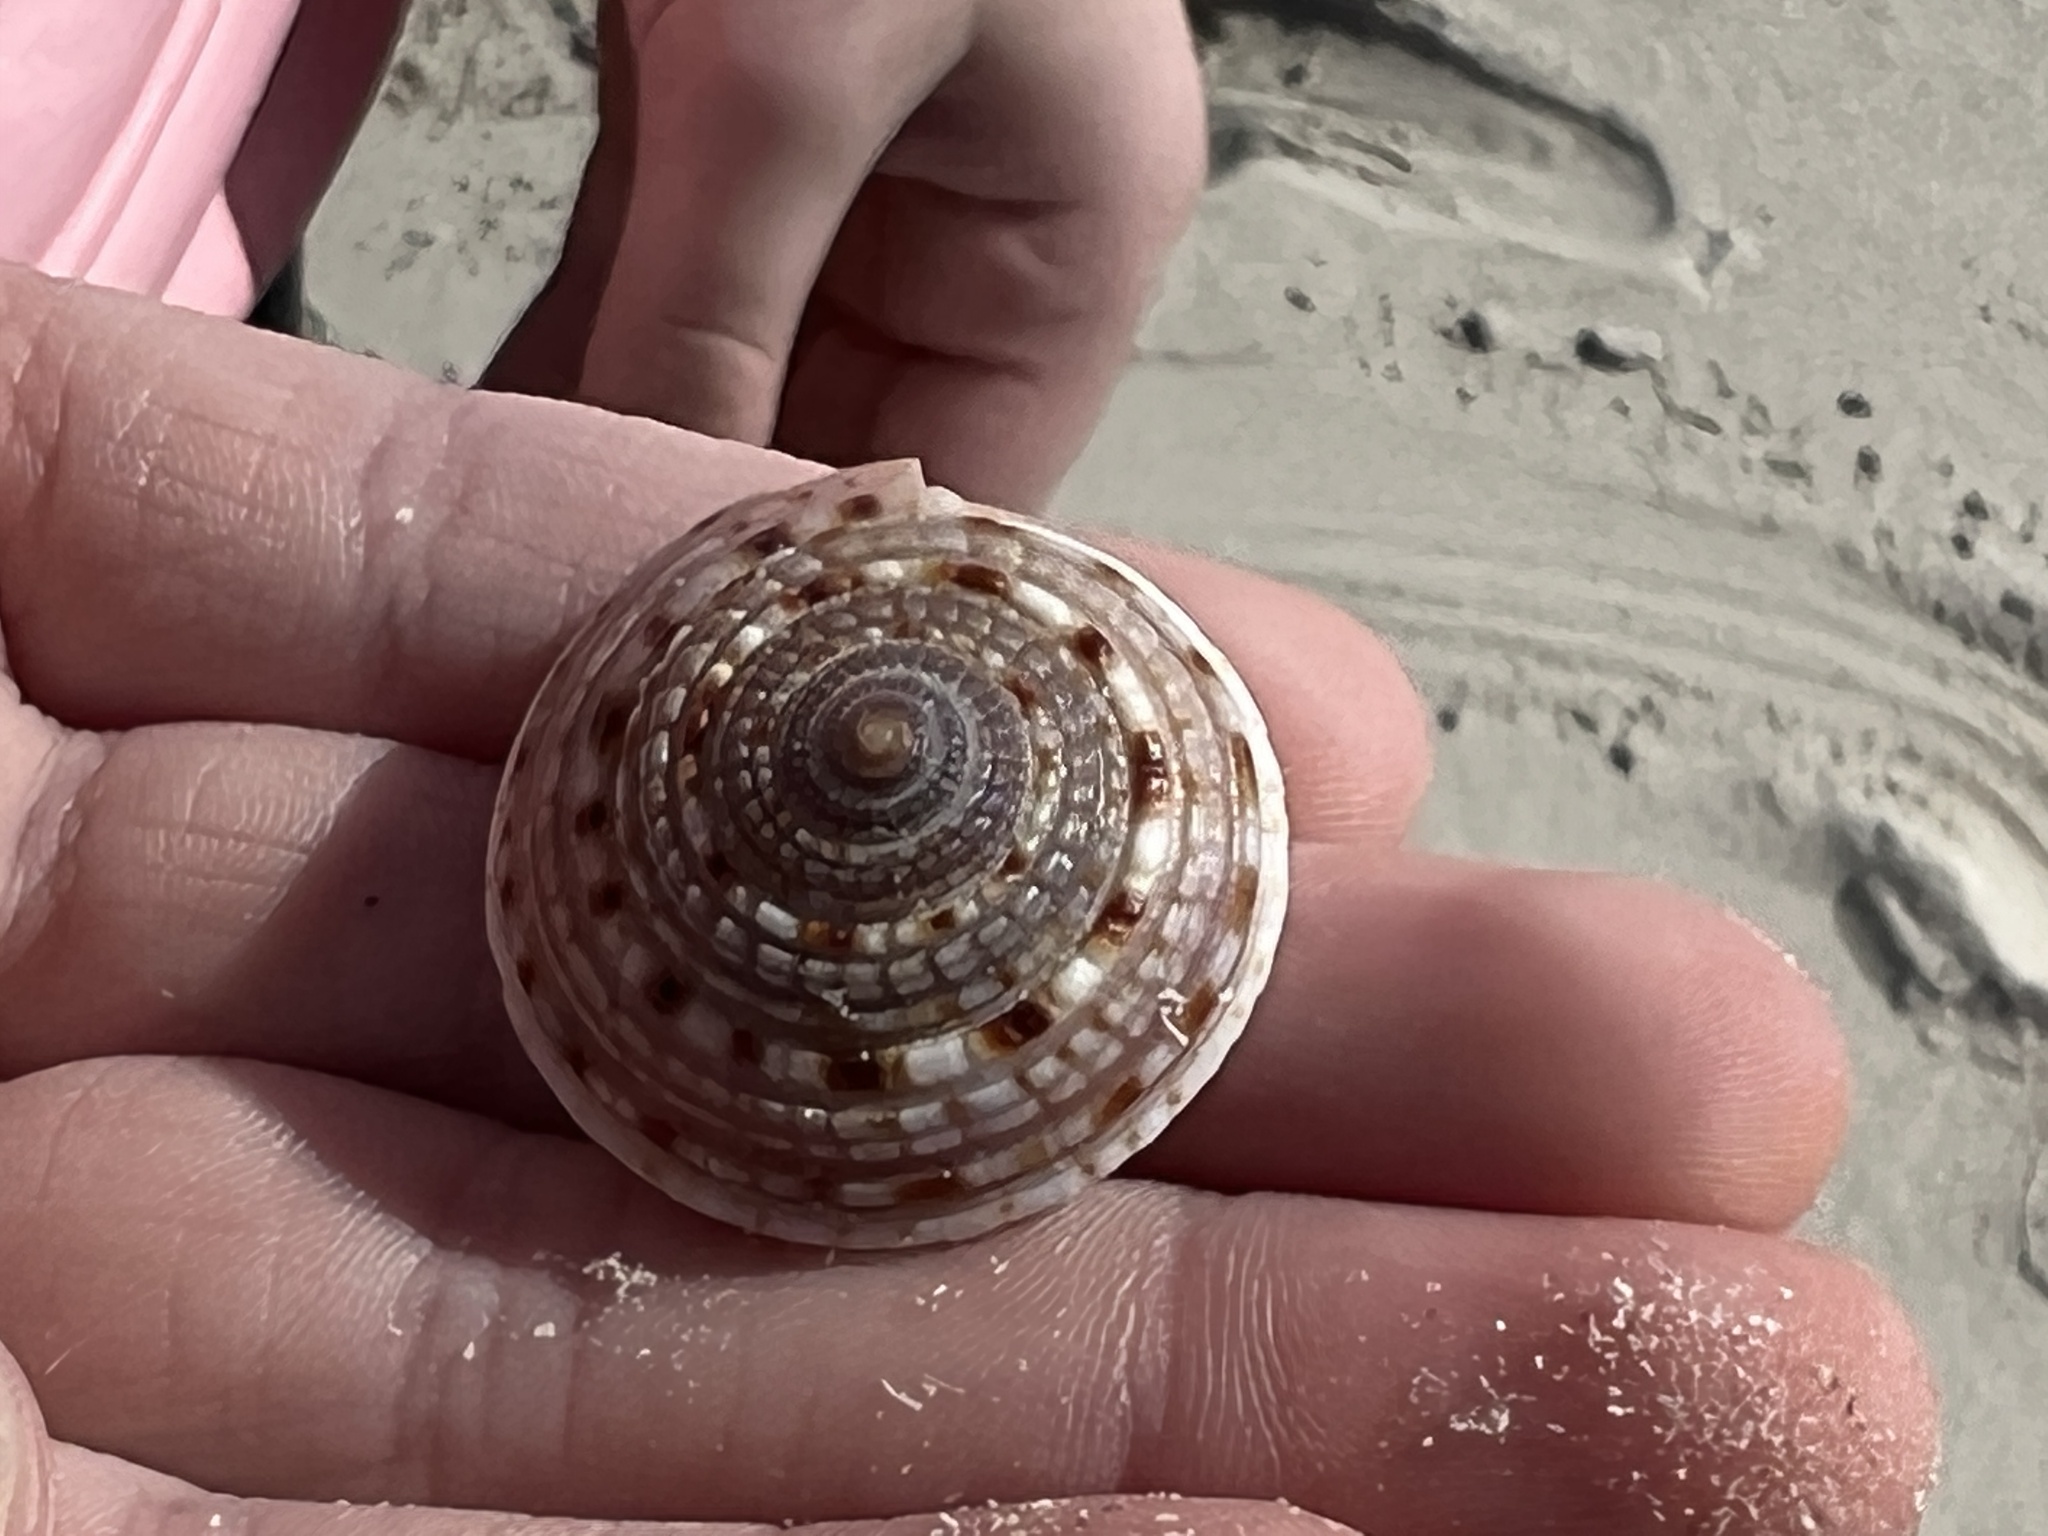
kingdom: Animalia
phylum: Mollusca
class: Gastropoda
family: Architectonicidae
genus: Architectonica
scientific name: Architectonica nobilis
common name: Common sundial
